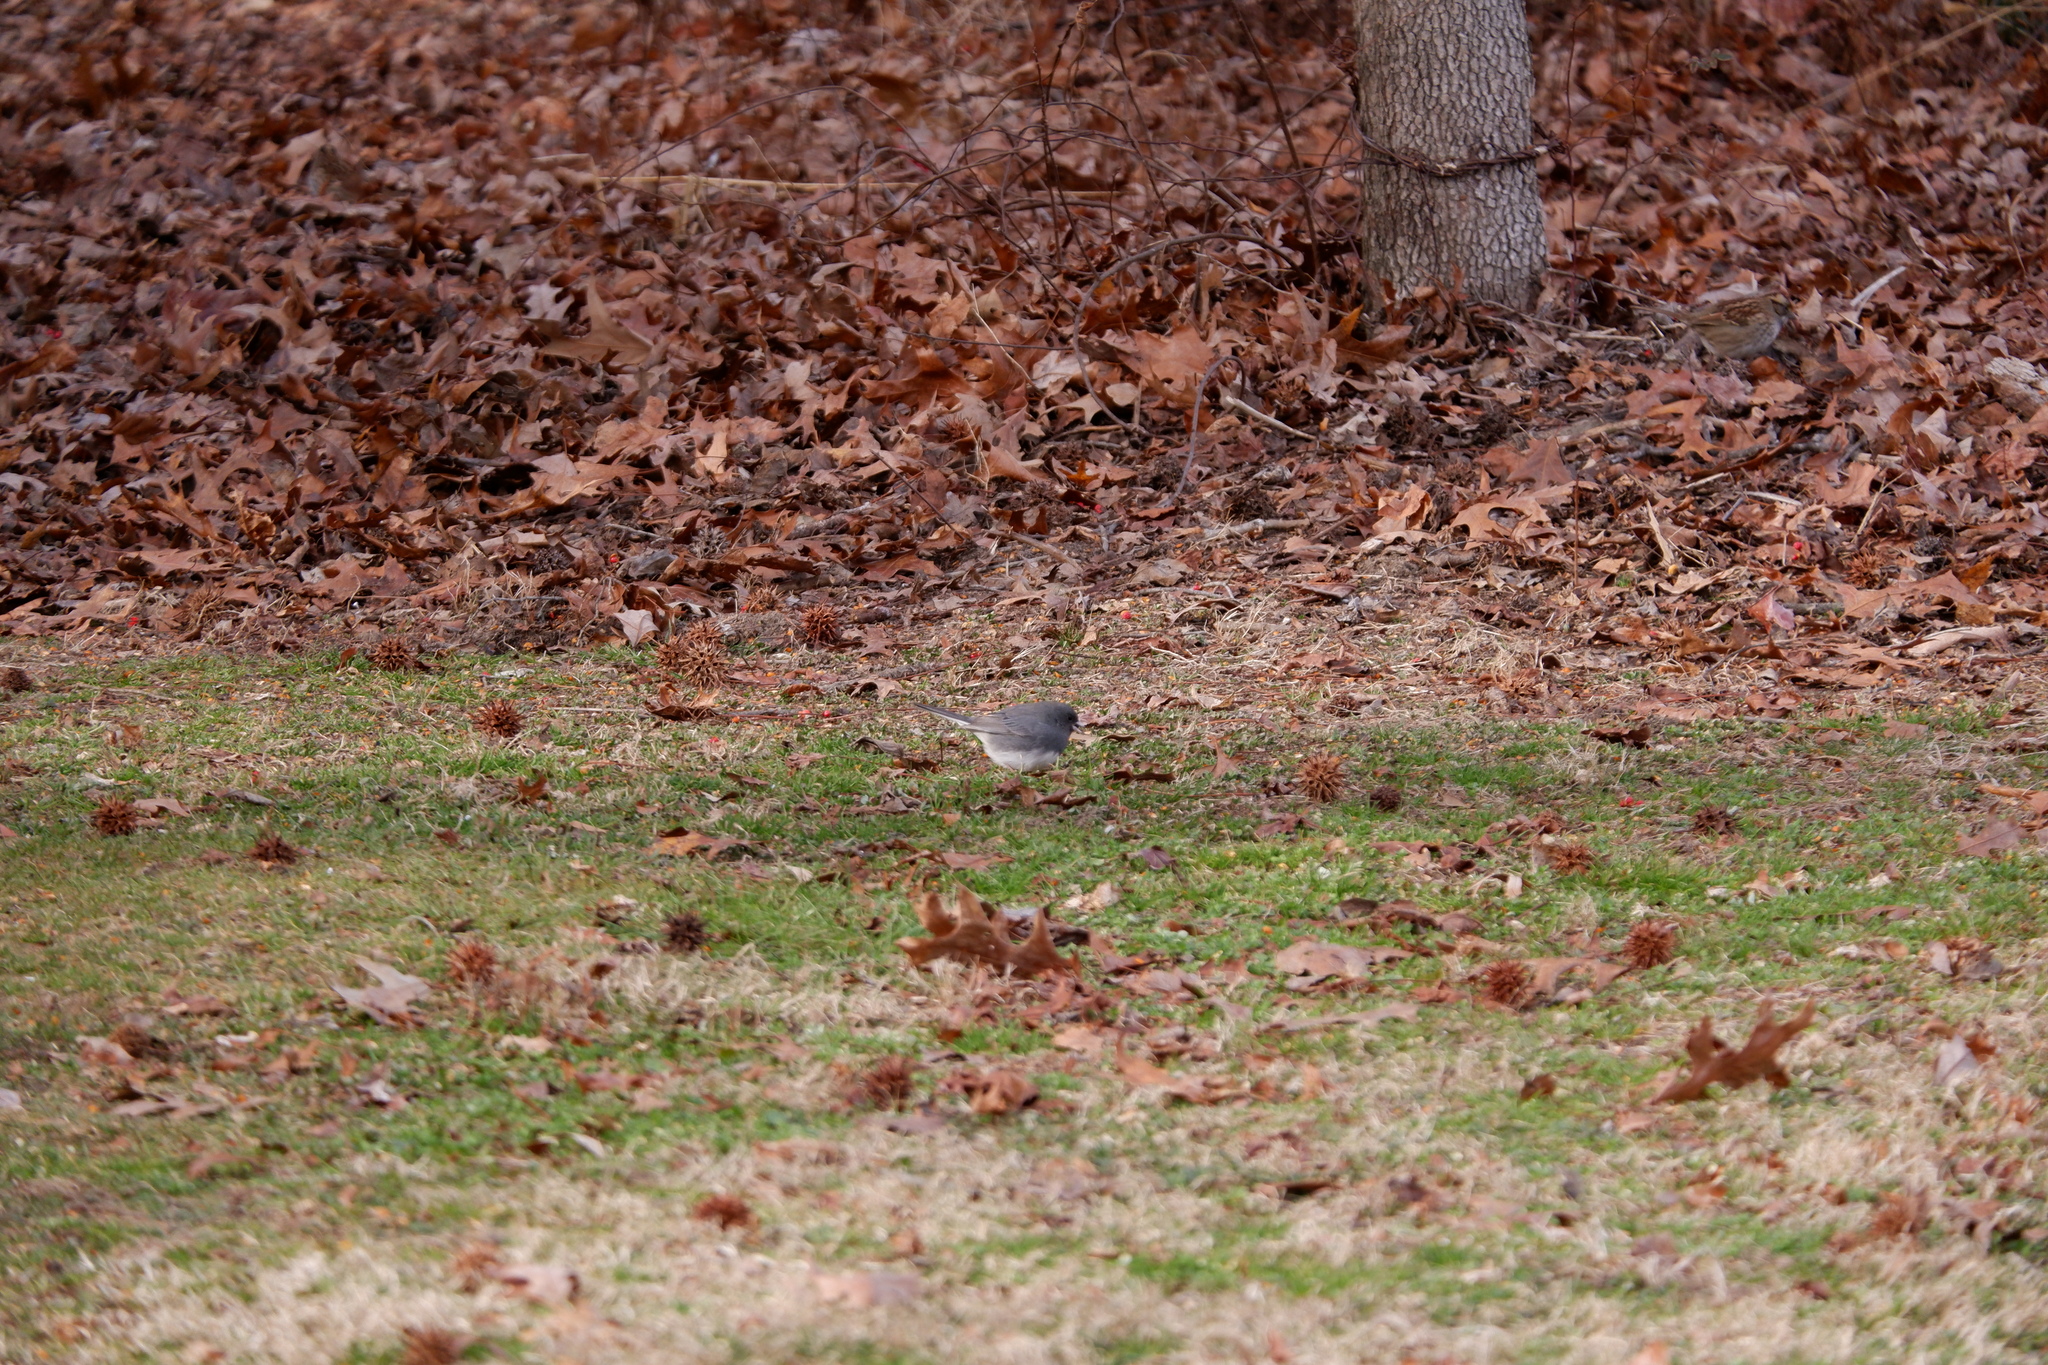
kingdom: Animalia
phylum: Chordata
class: Aves
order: Passeriformes
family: Passerellidae
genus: Junco
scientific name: Junco hyemalis
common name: Dark-eyed junco
